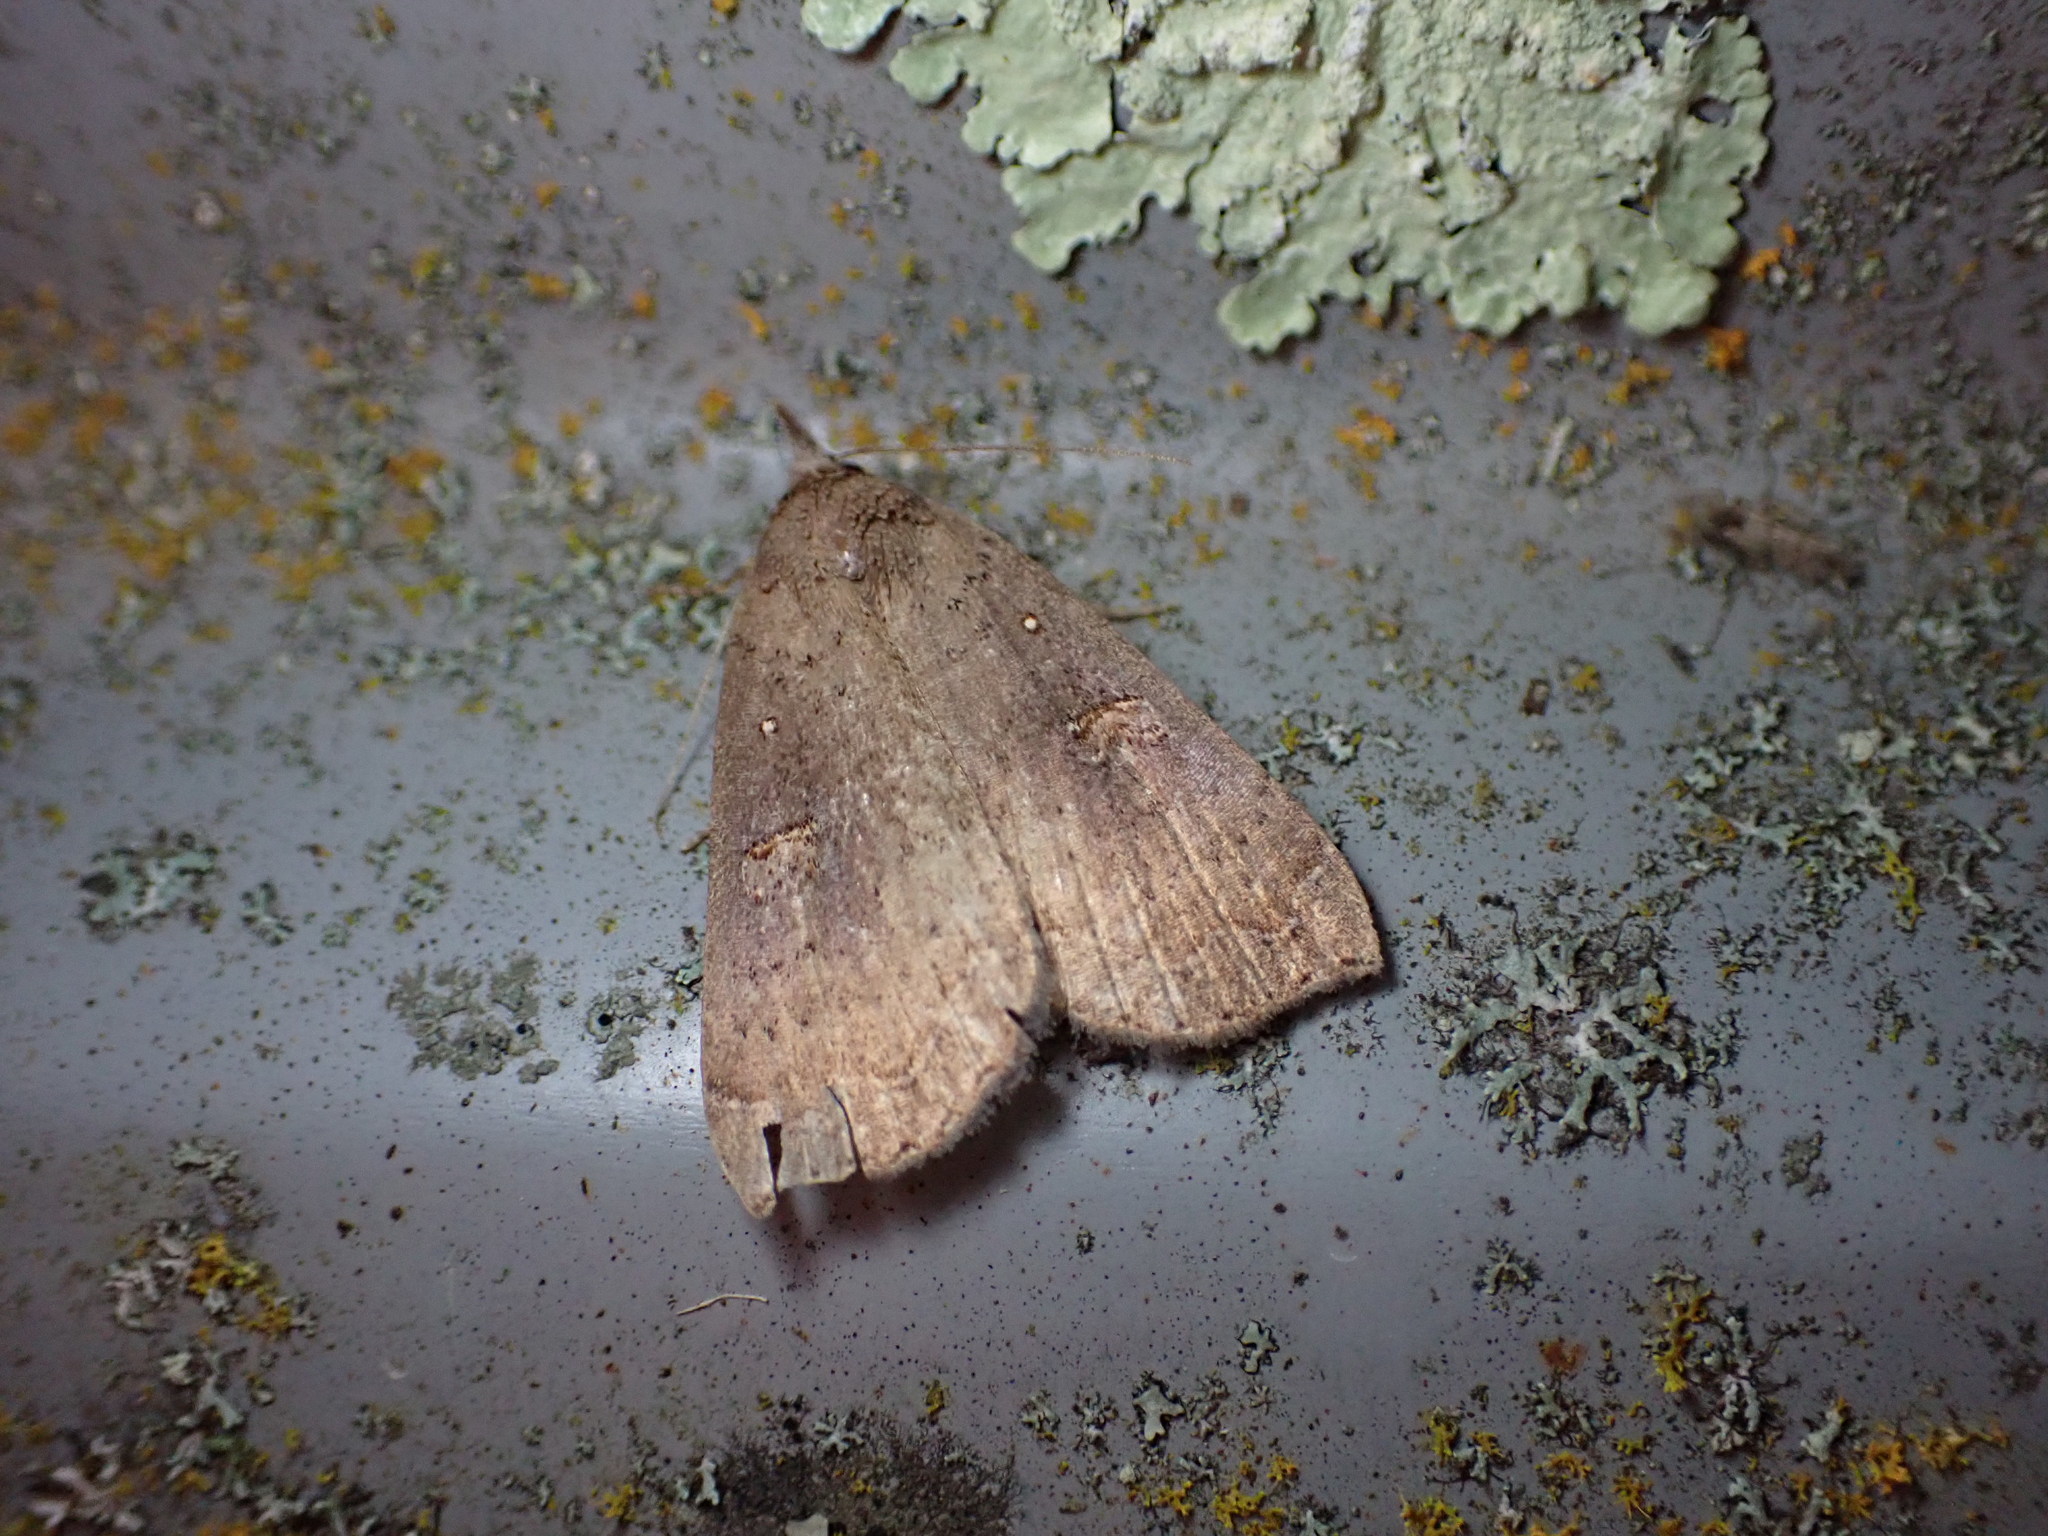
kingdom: Animalia
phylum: Arthropoda
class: Insecta
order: Lepidoptera
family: Erebidae
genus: Rhapsa
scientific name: Rhapsa scotosialis
